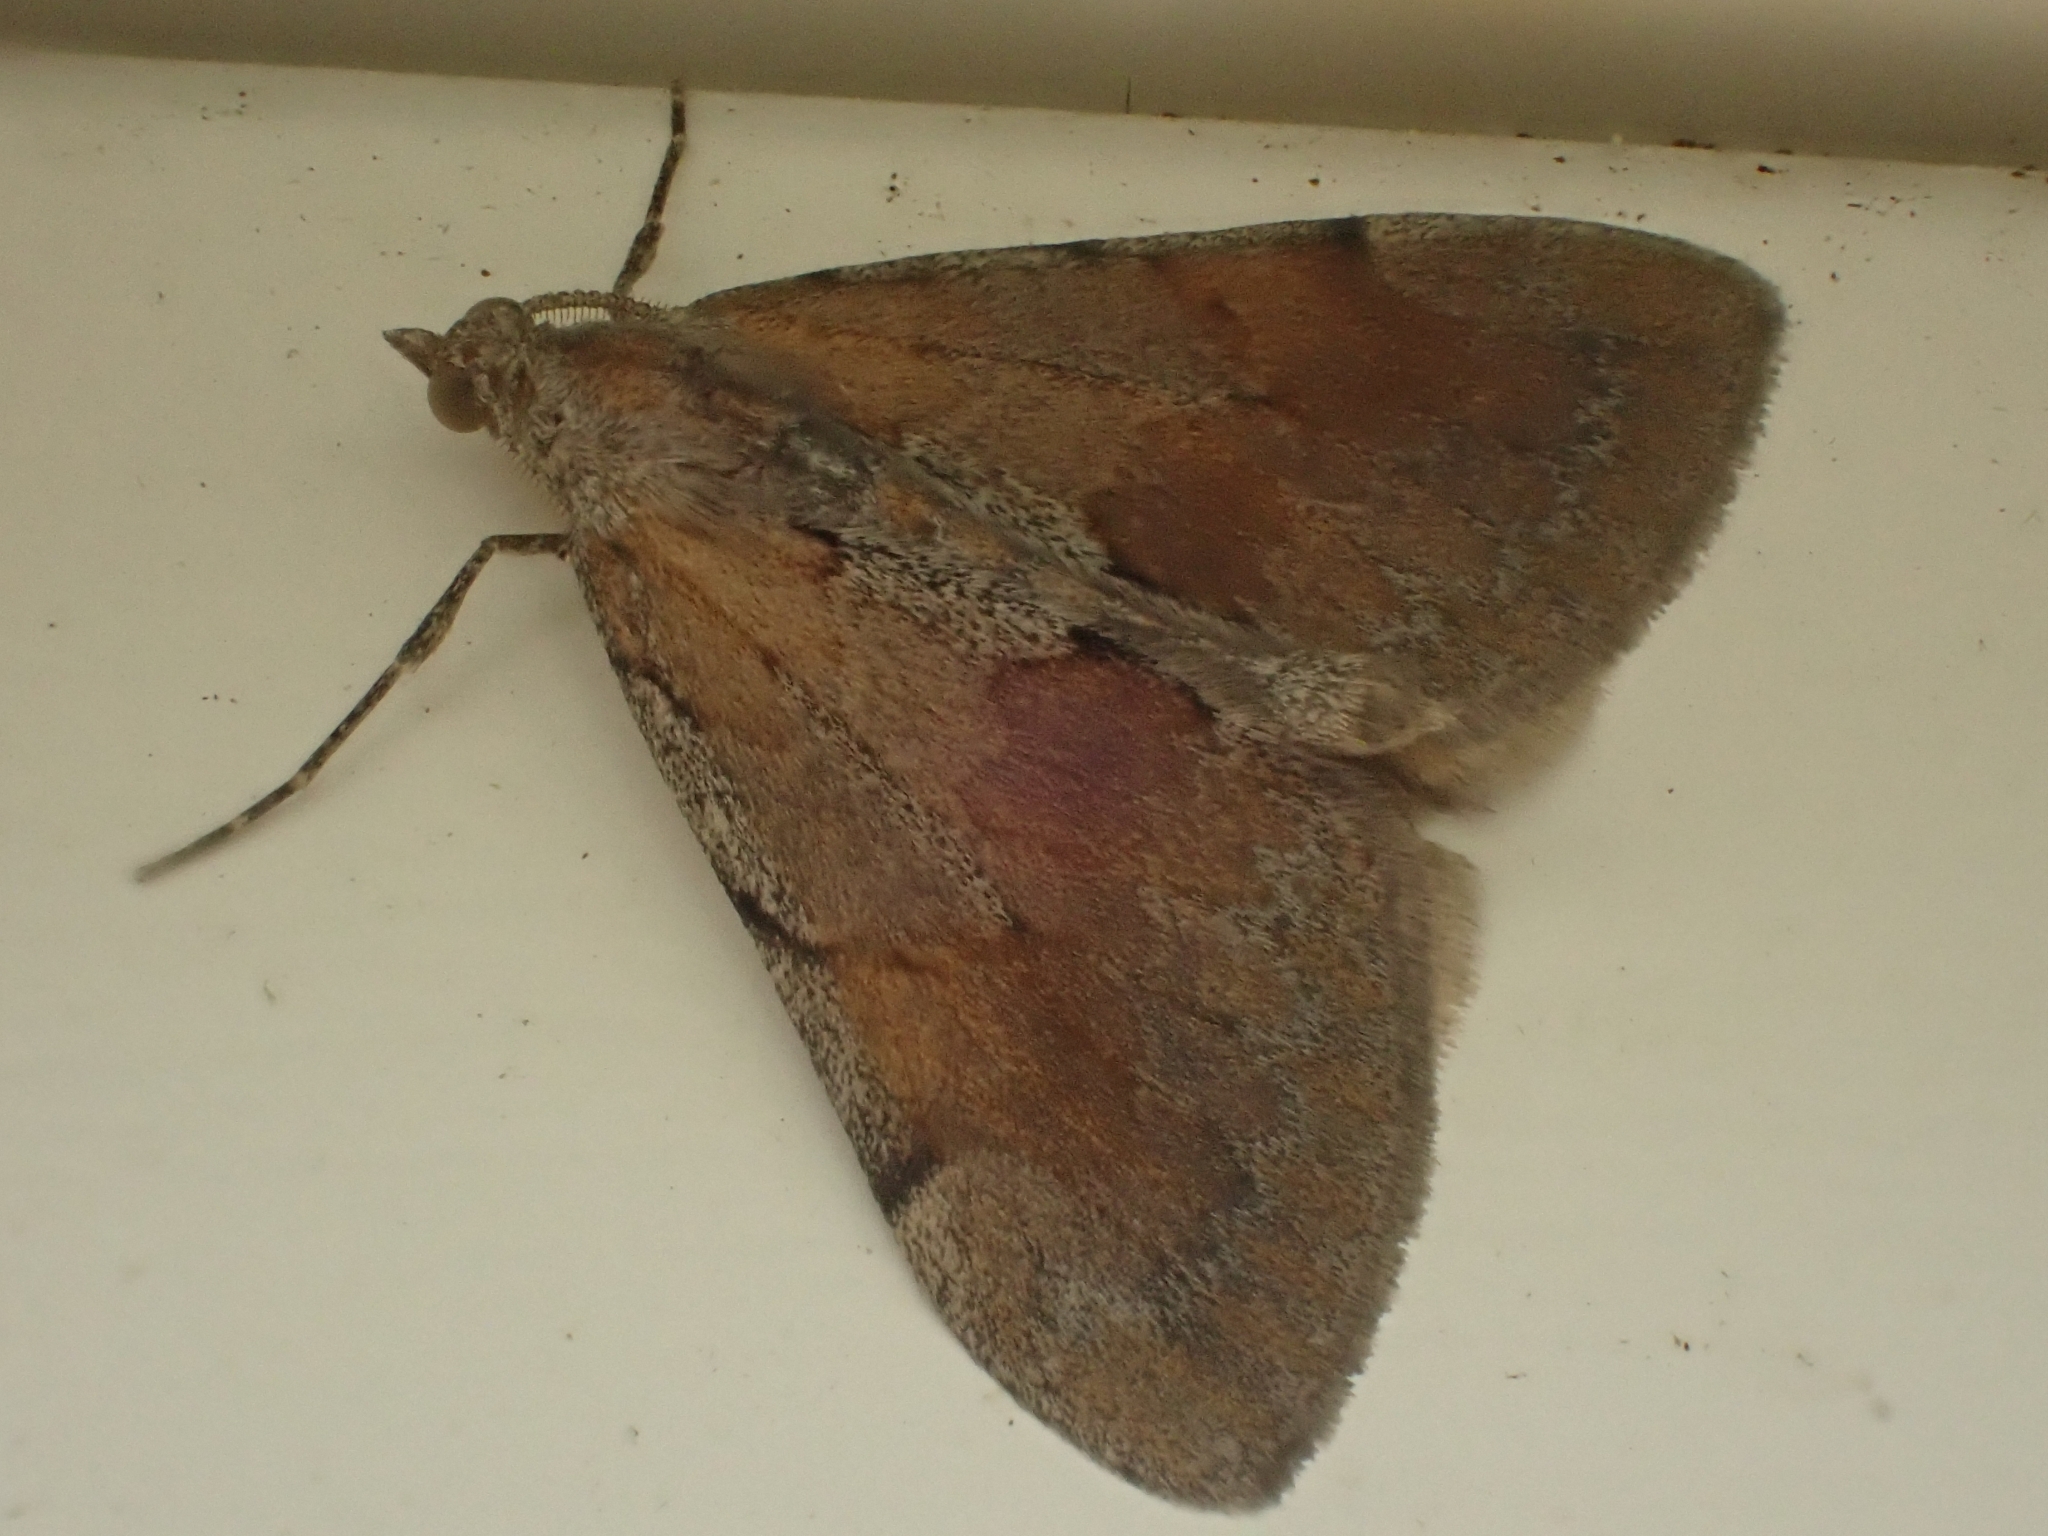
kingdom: Animalia
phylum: Arthropoda
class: Insecta
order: Lepidoptera
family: Geometridae
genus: Pennithera
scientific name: Pennithera firmata
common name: Pine carpet
